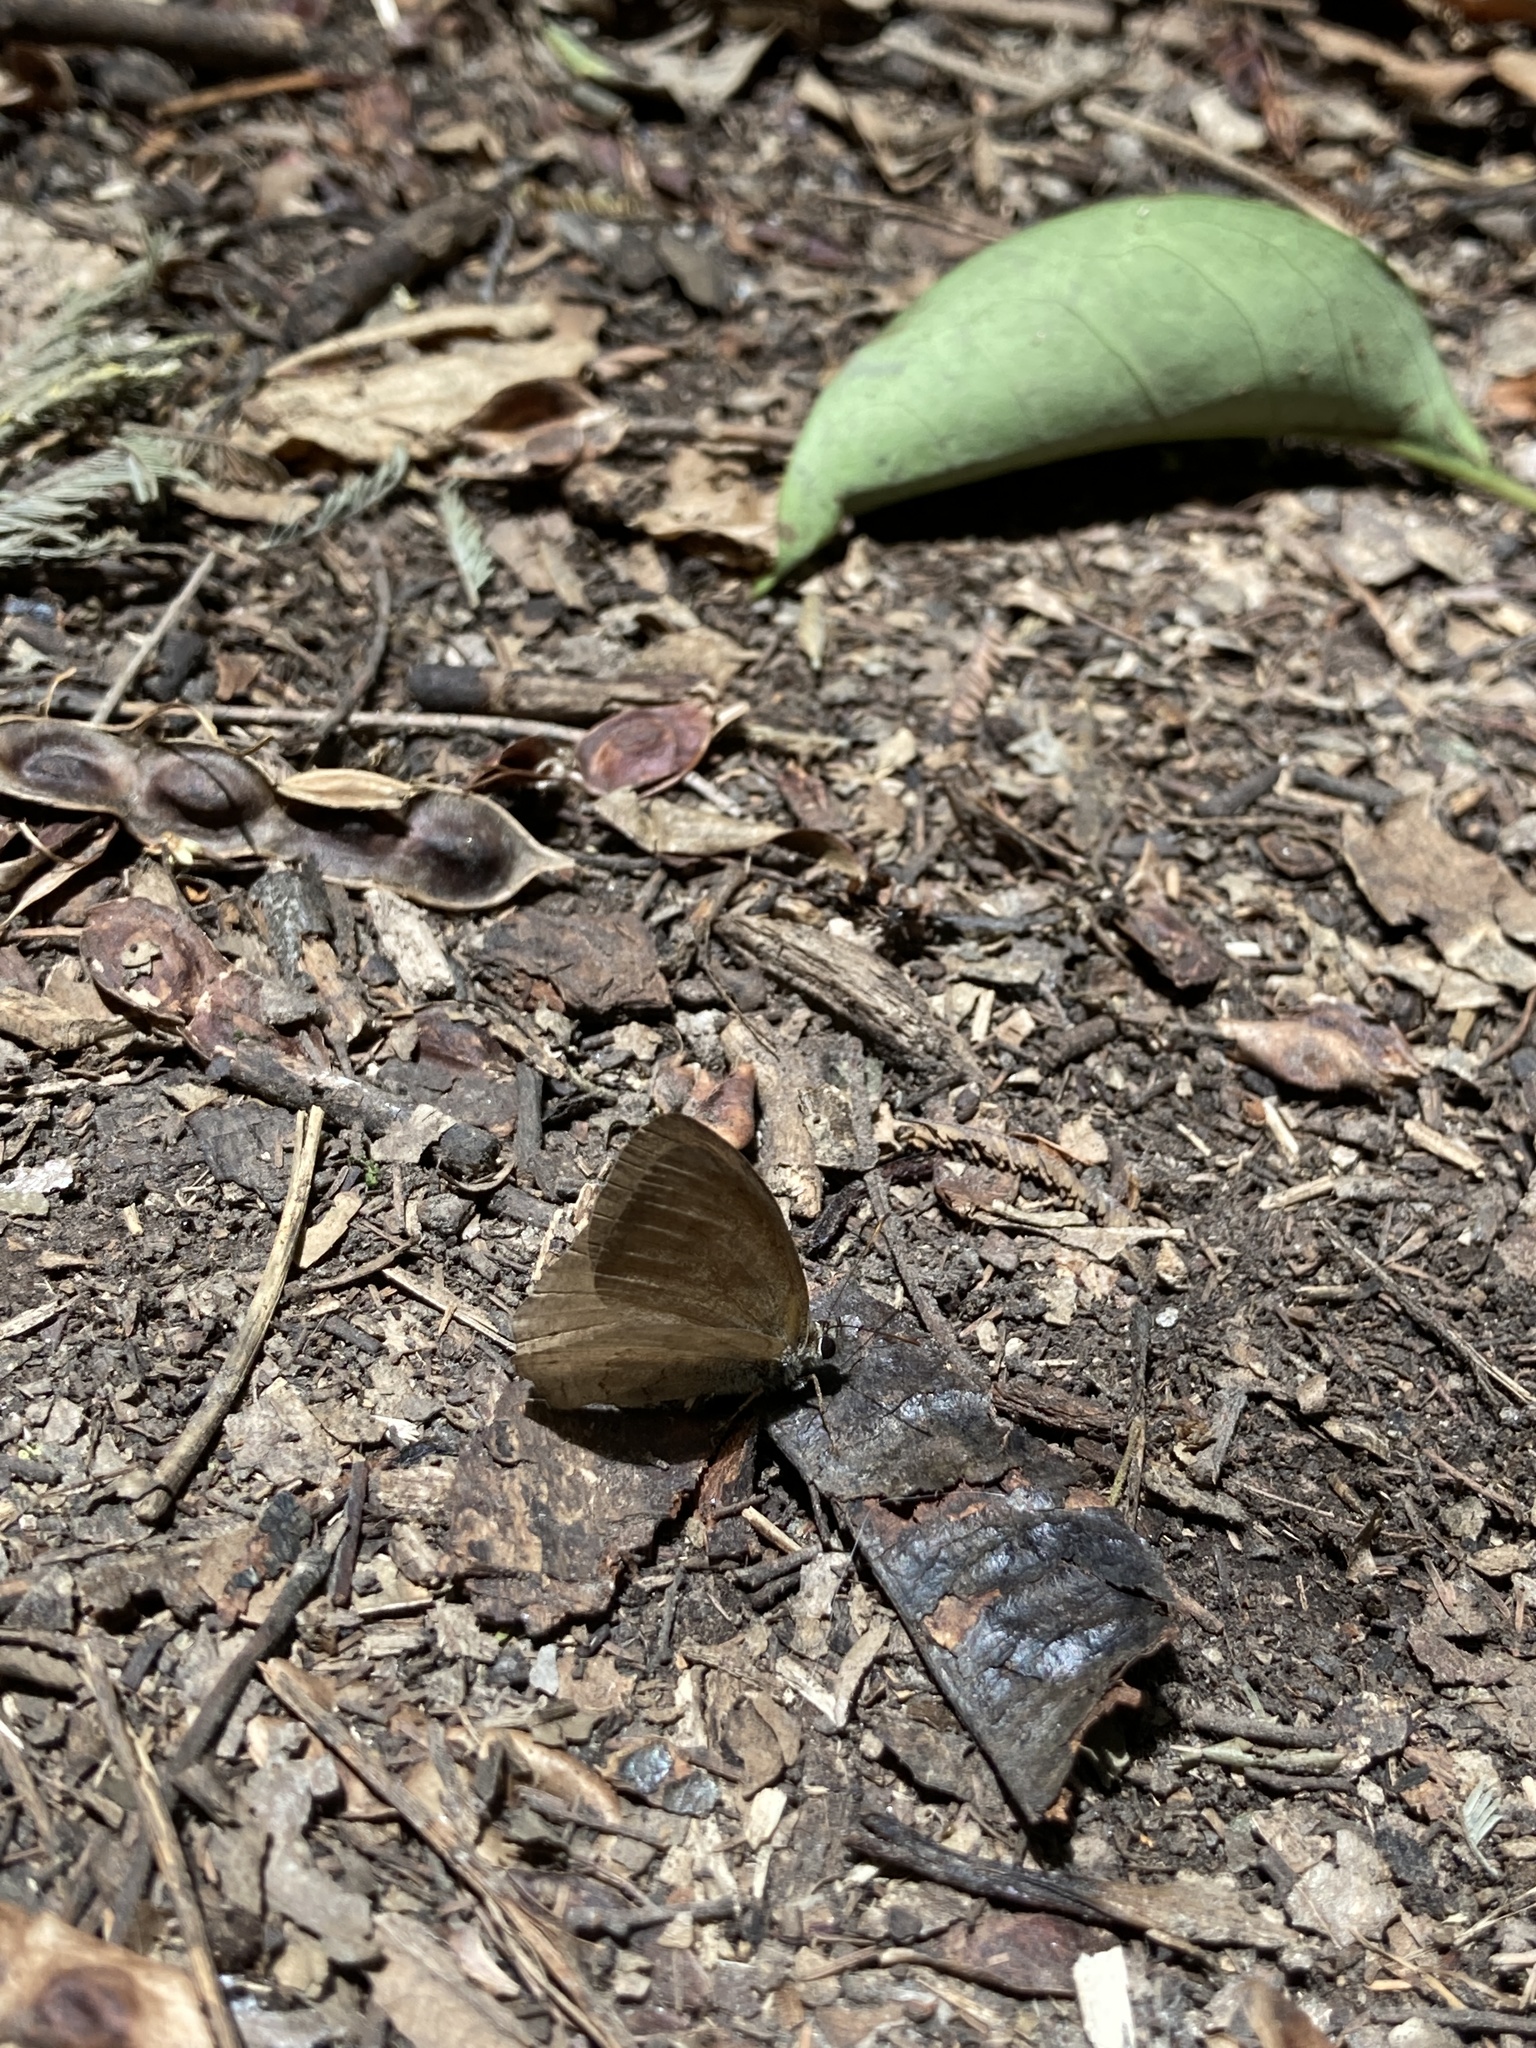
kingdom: Animalia
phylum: Arthropoda
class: Insecta
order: Lepidoptera
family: Nymphalidae
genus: Euptychia
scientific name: Euptychia
